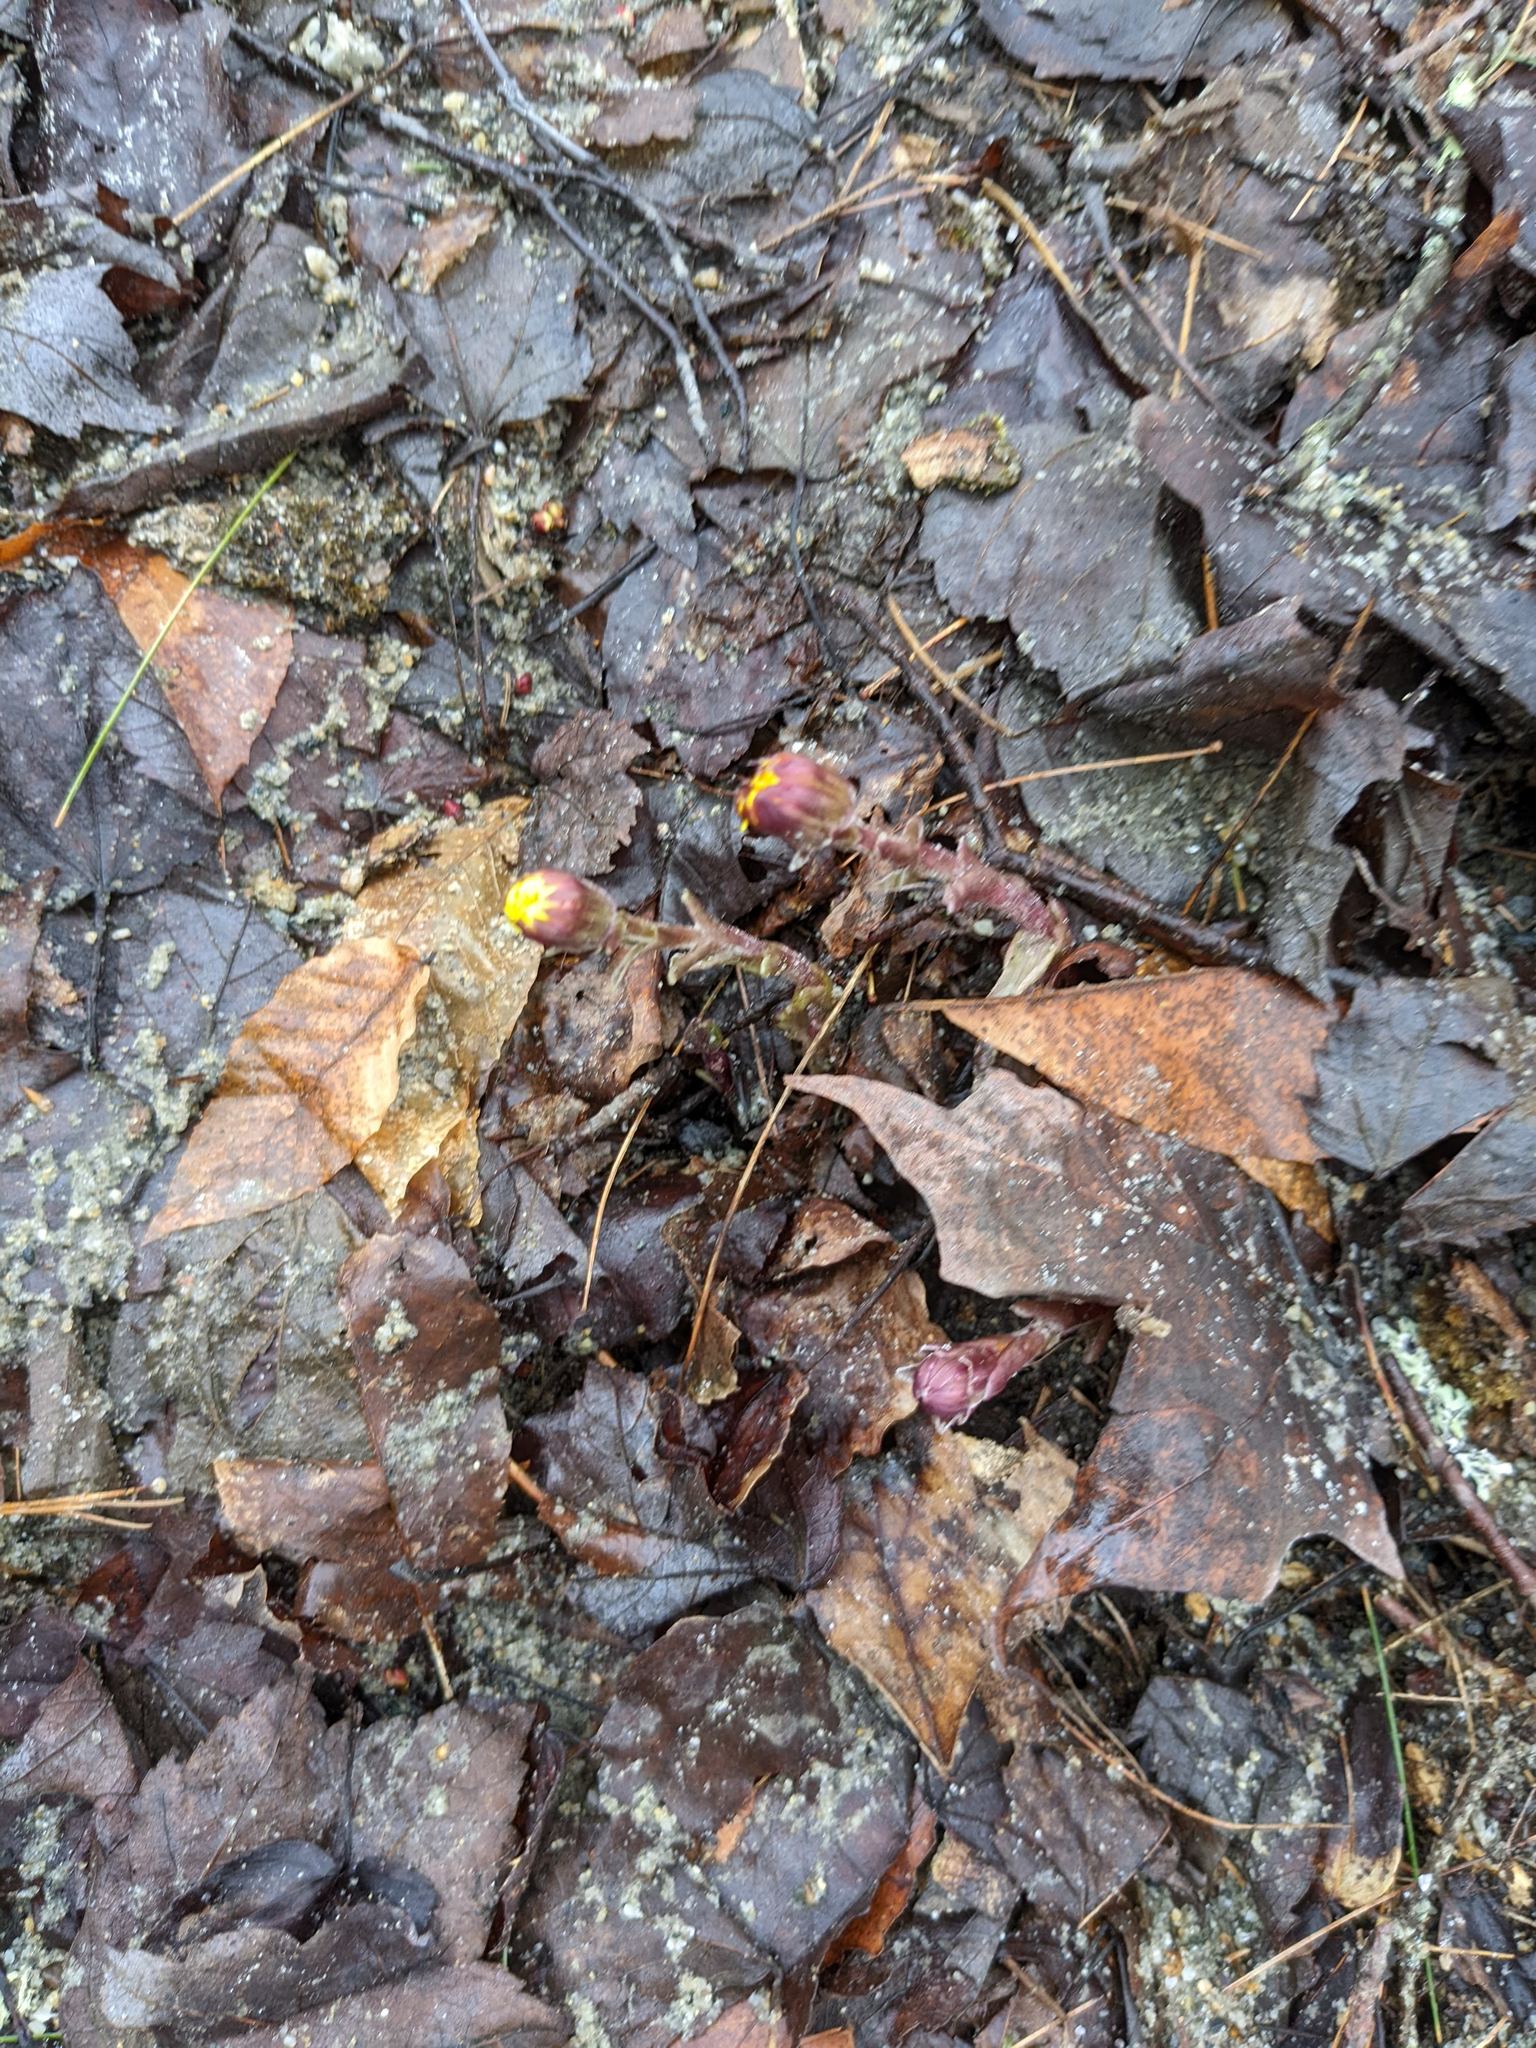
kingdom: Plantae
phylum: Tracheophyta
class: Magnoliopsida
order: Asterales
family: Asteraceae
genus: Tussilago
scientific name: Tussilago farfara
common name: Coltsfoot
